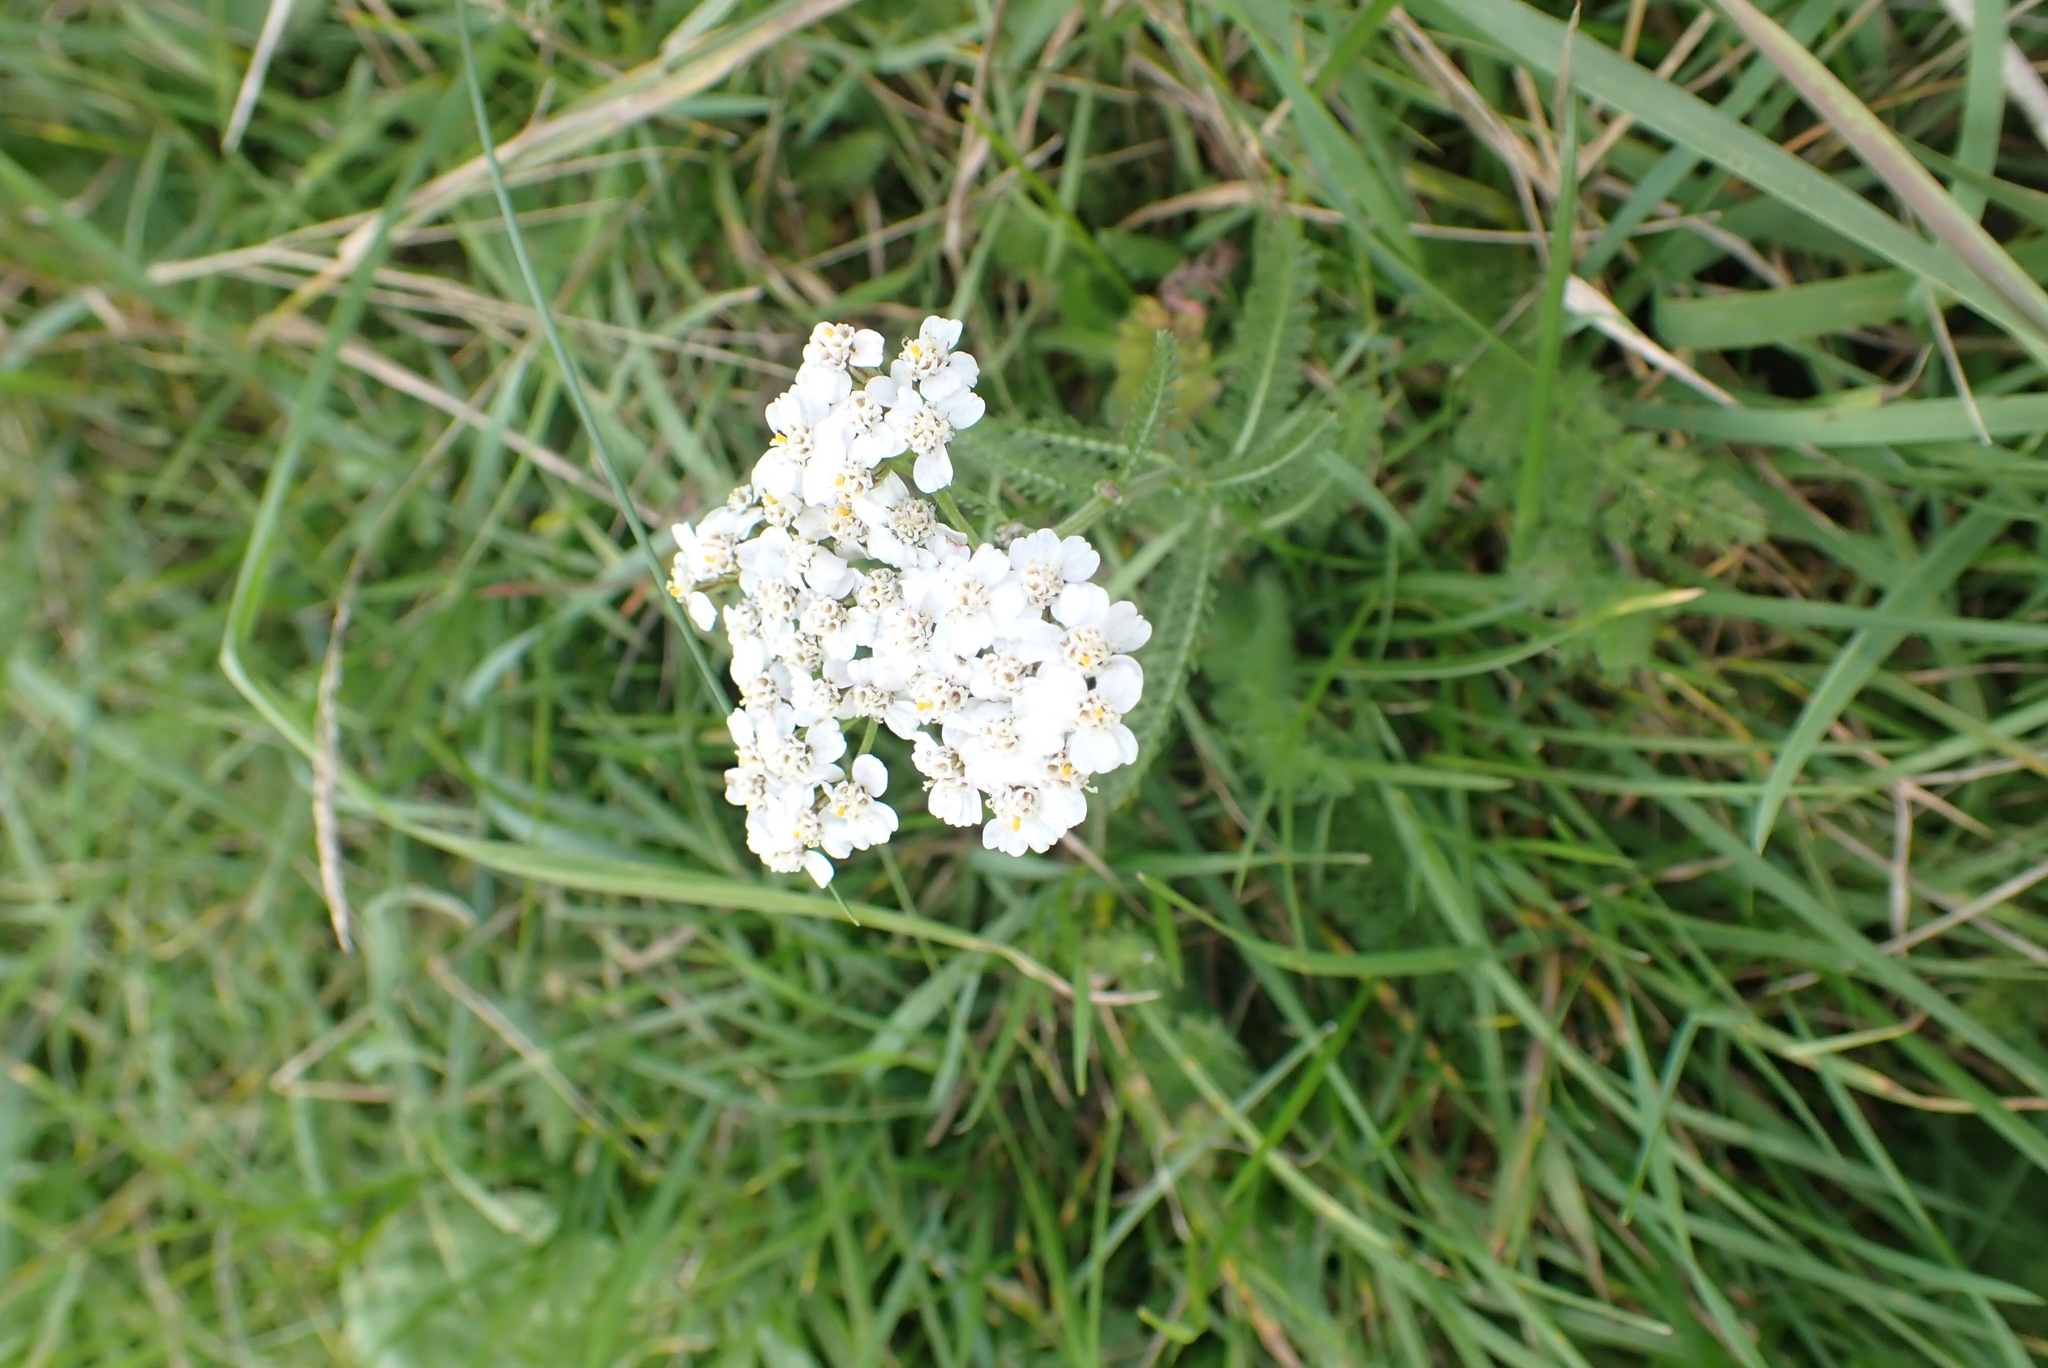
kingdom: Plantae
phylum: Tracheophyta
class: Magnoliopsida
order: Asterales
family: Asteraceae
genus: Achillea
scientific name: Achillea millefolium
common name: Yarrow
